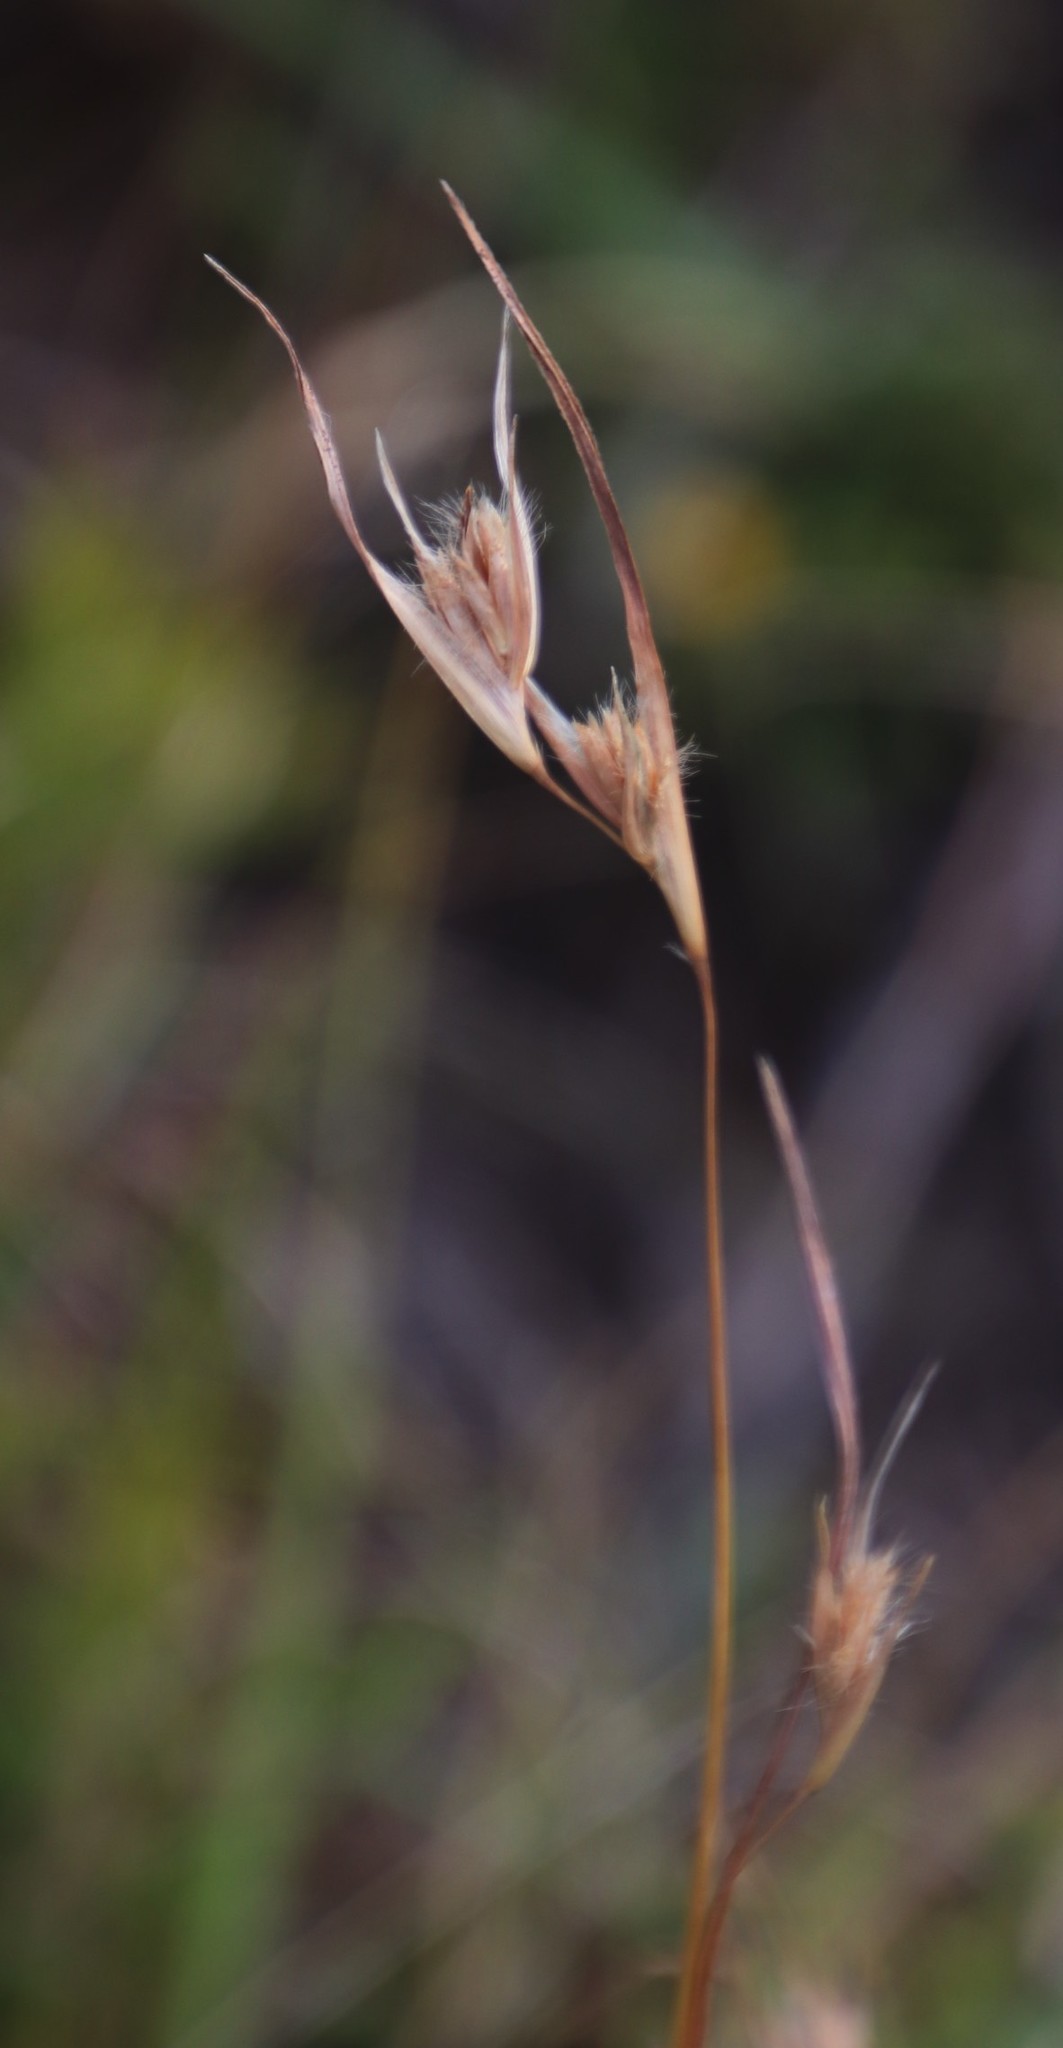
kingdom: Plantae
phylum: Tracheophyta
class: Liliopsida
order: Poales
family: Poaceae
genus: Themeda
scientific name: Themeda triandra
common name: Kangaroo grass
